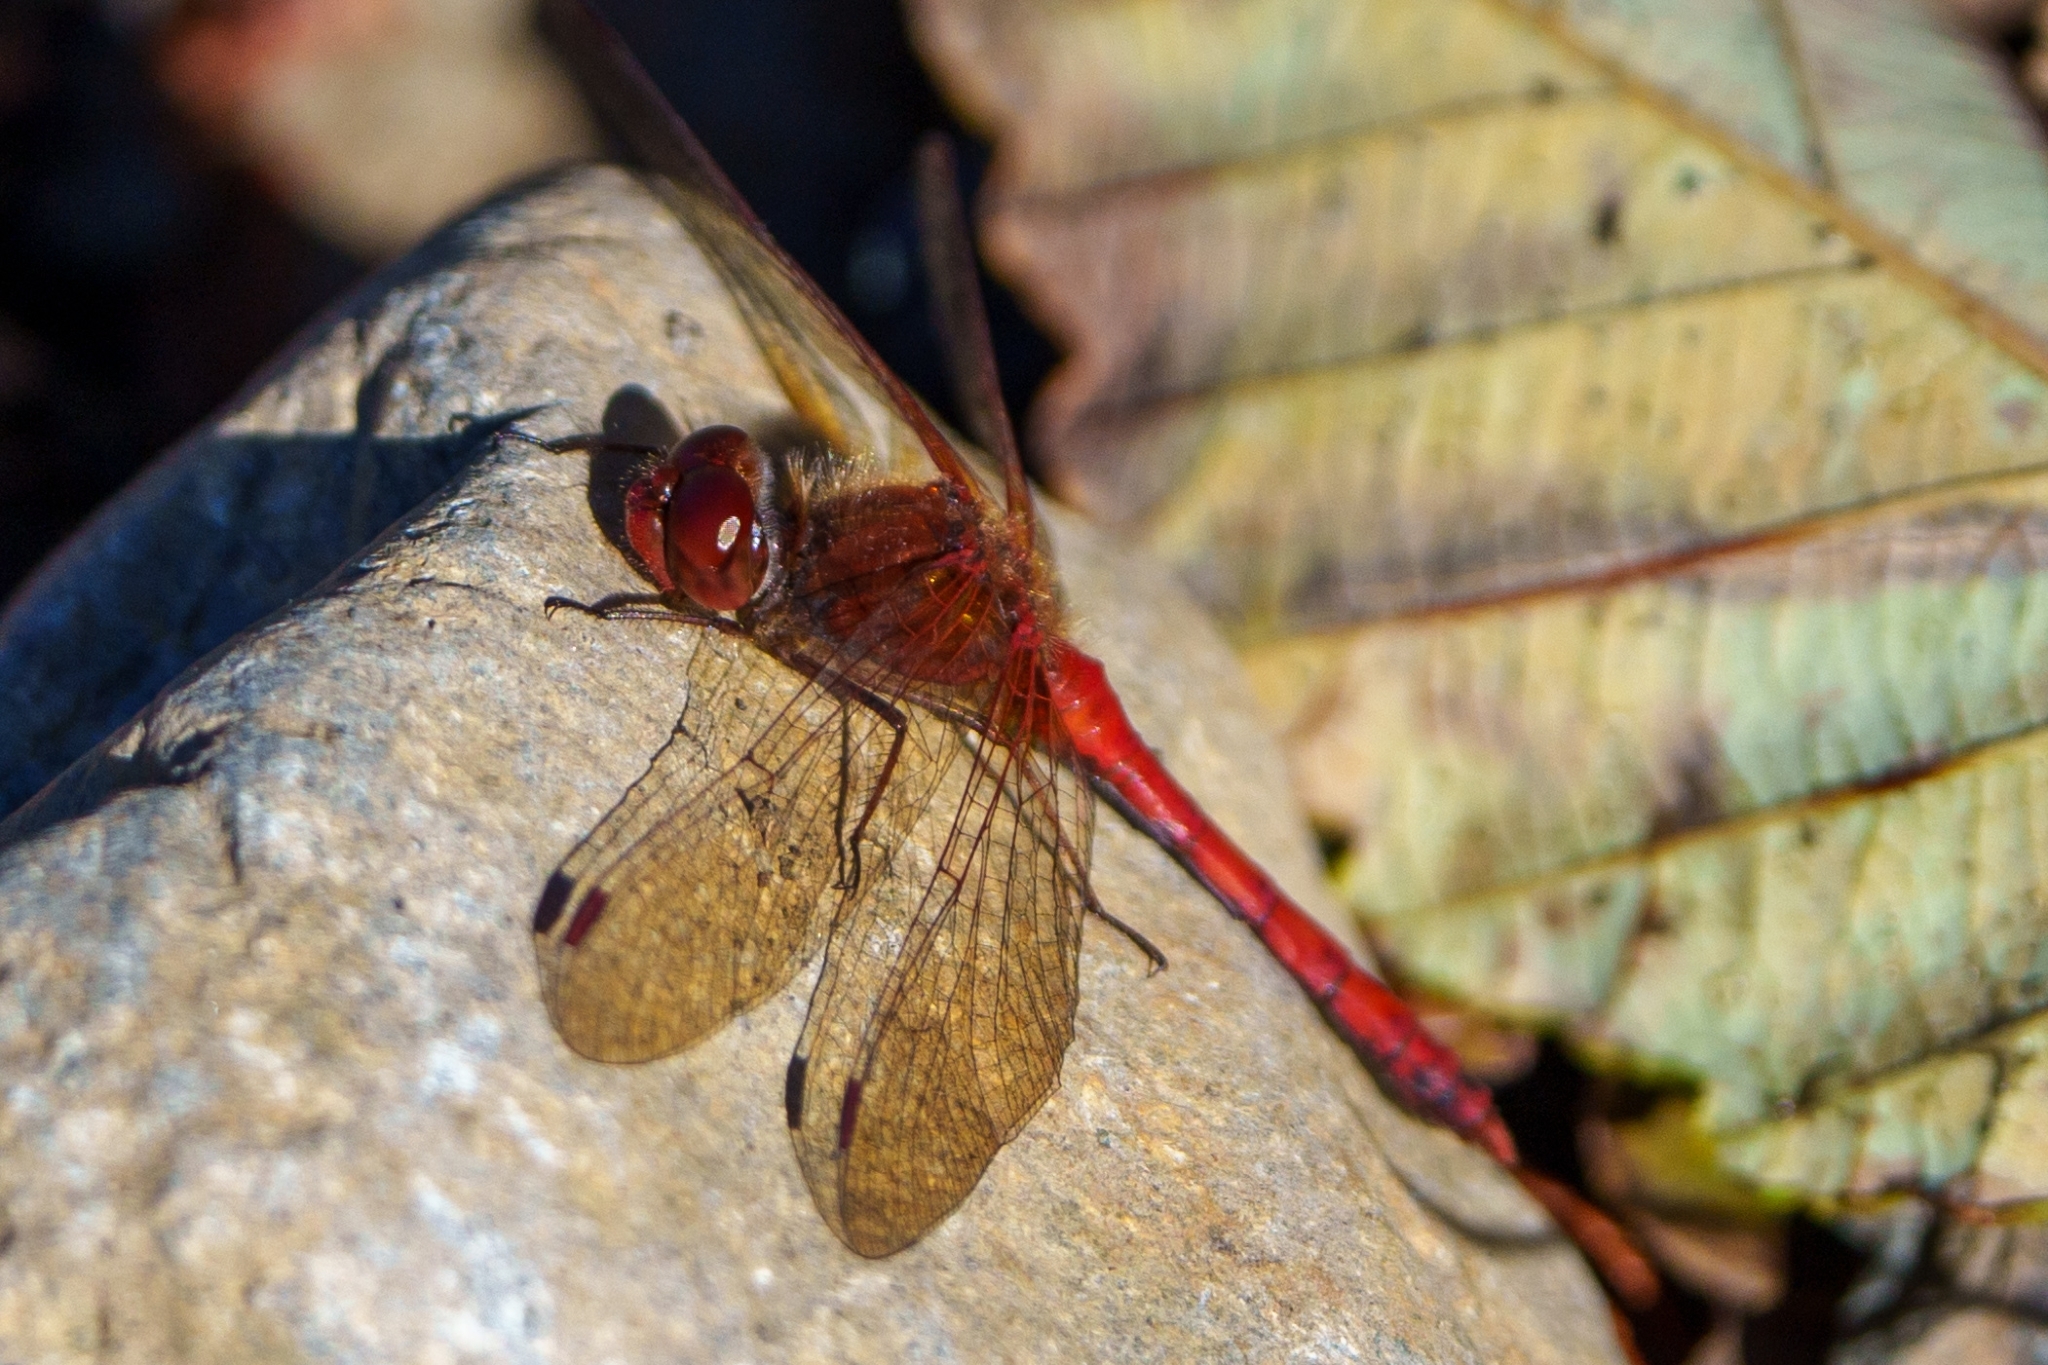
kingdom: Animalia
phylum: Arthropoda
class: Insecta
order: Odonata
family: Libellulidae
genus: Sympetrum
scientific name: Sympetrum vicinum
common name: Autumn meadowhawk
